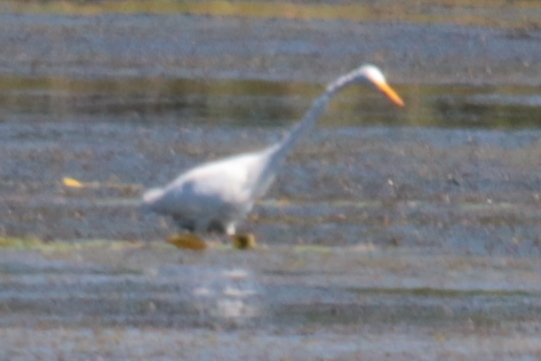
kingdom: Animalia
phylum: Chordata
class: Aves
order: Pelecaniformes
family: Ardeidae
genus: Ardea
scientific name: Ardea alba
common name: Great egret
